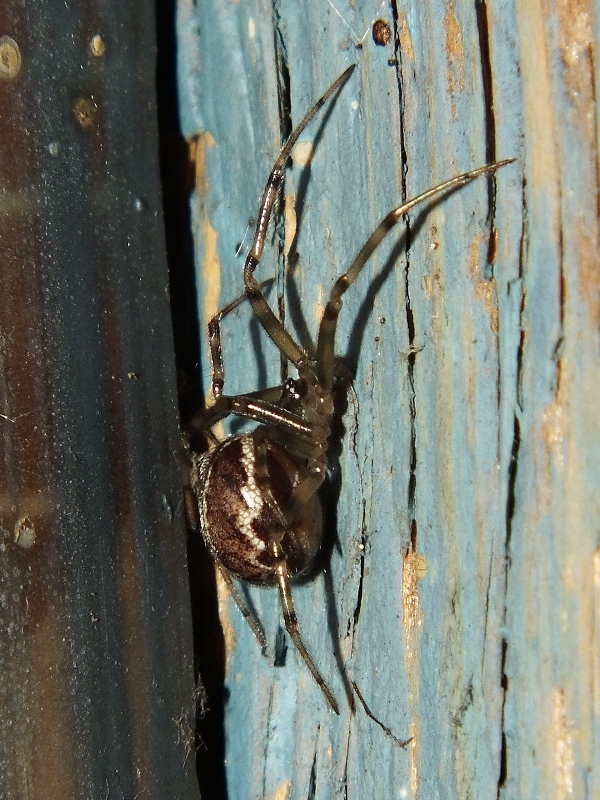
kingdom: Animalia
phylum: Arthropoda
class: Arachnida
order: Araneae
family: Theridiidae
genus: Steatoda
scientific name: Steatoda castanea
